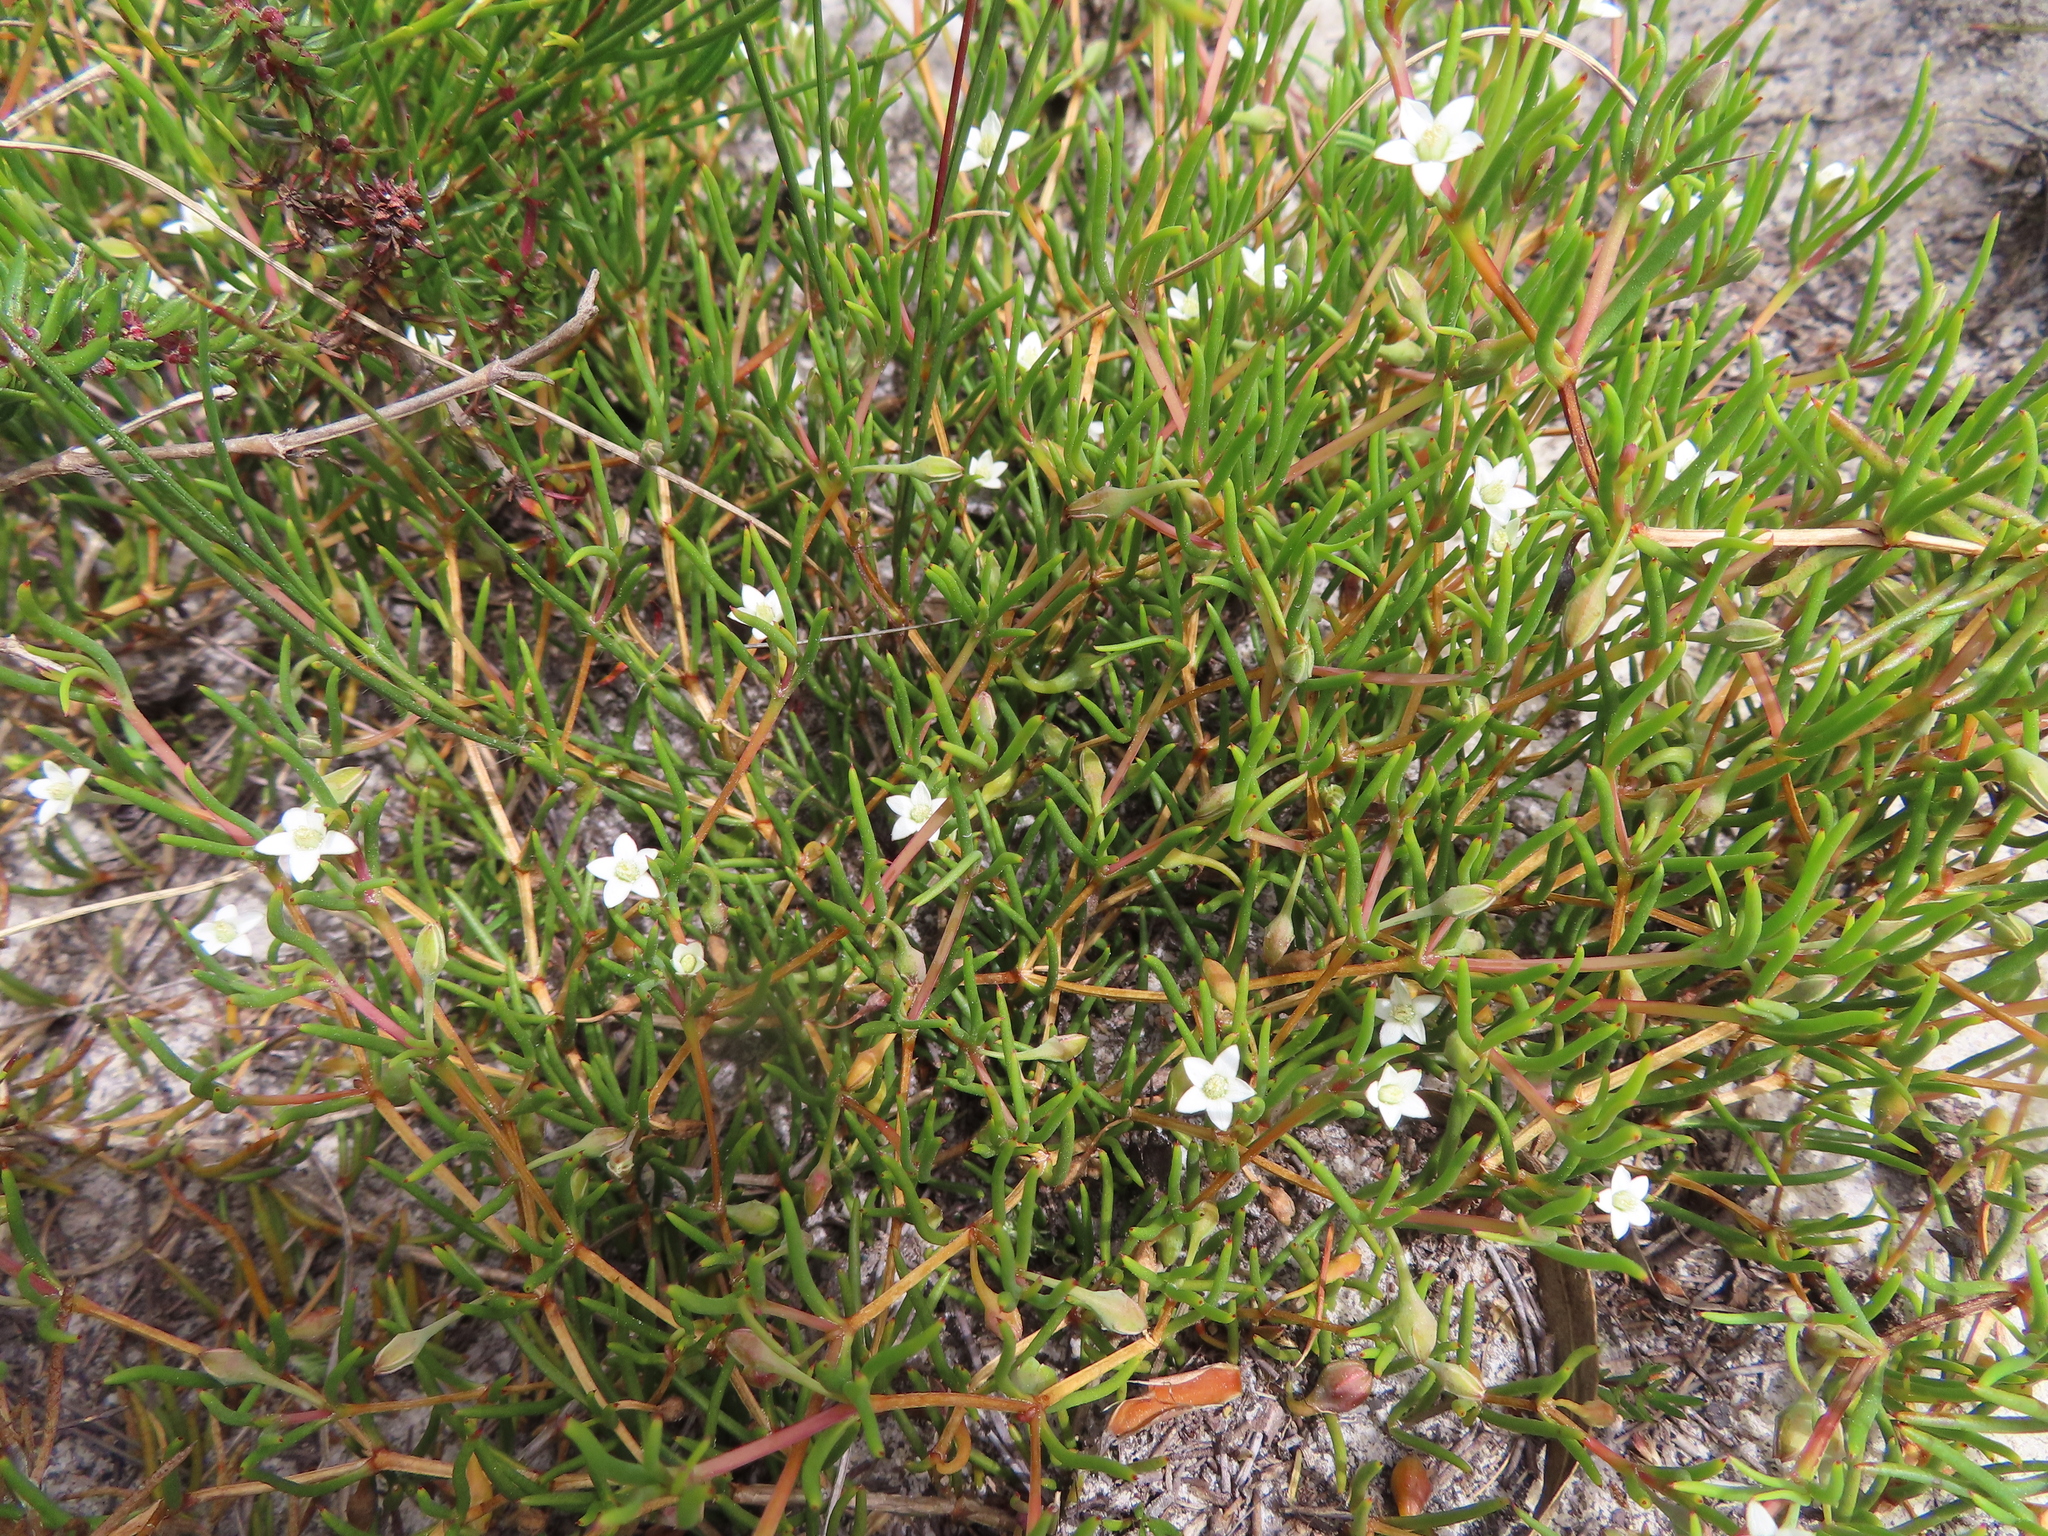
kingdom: Plantae
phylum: Tracheophyta
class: Magnoliopsida
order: Caryophyllales
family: Aizoaceae
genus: Acrosanthes
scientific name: Acrosanthes teretifolia
